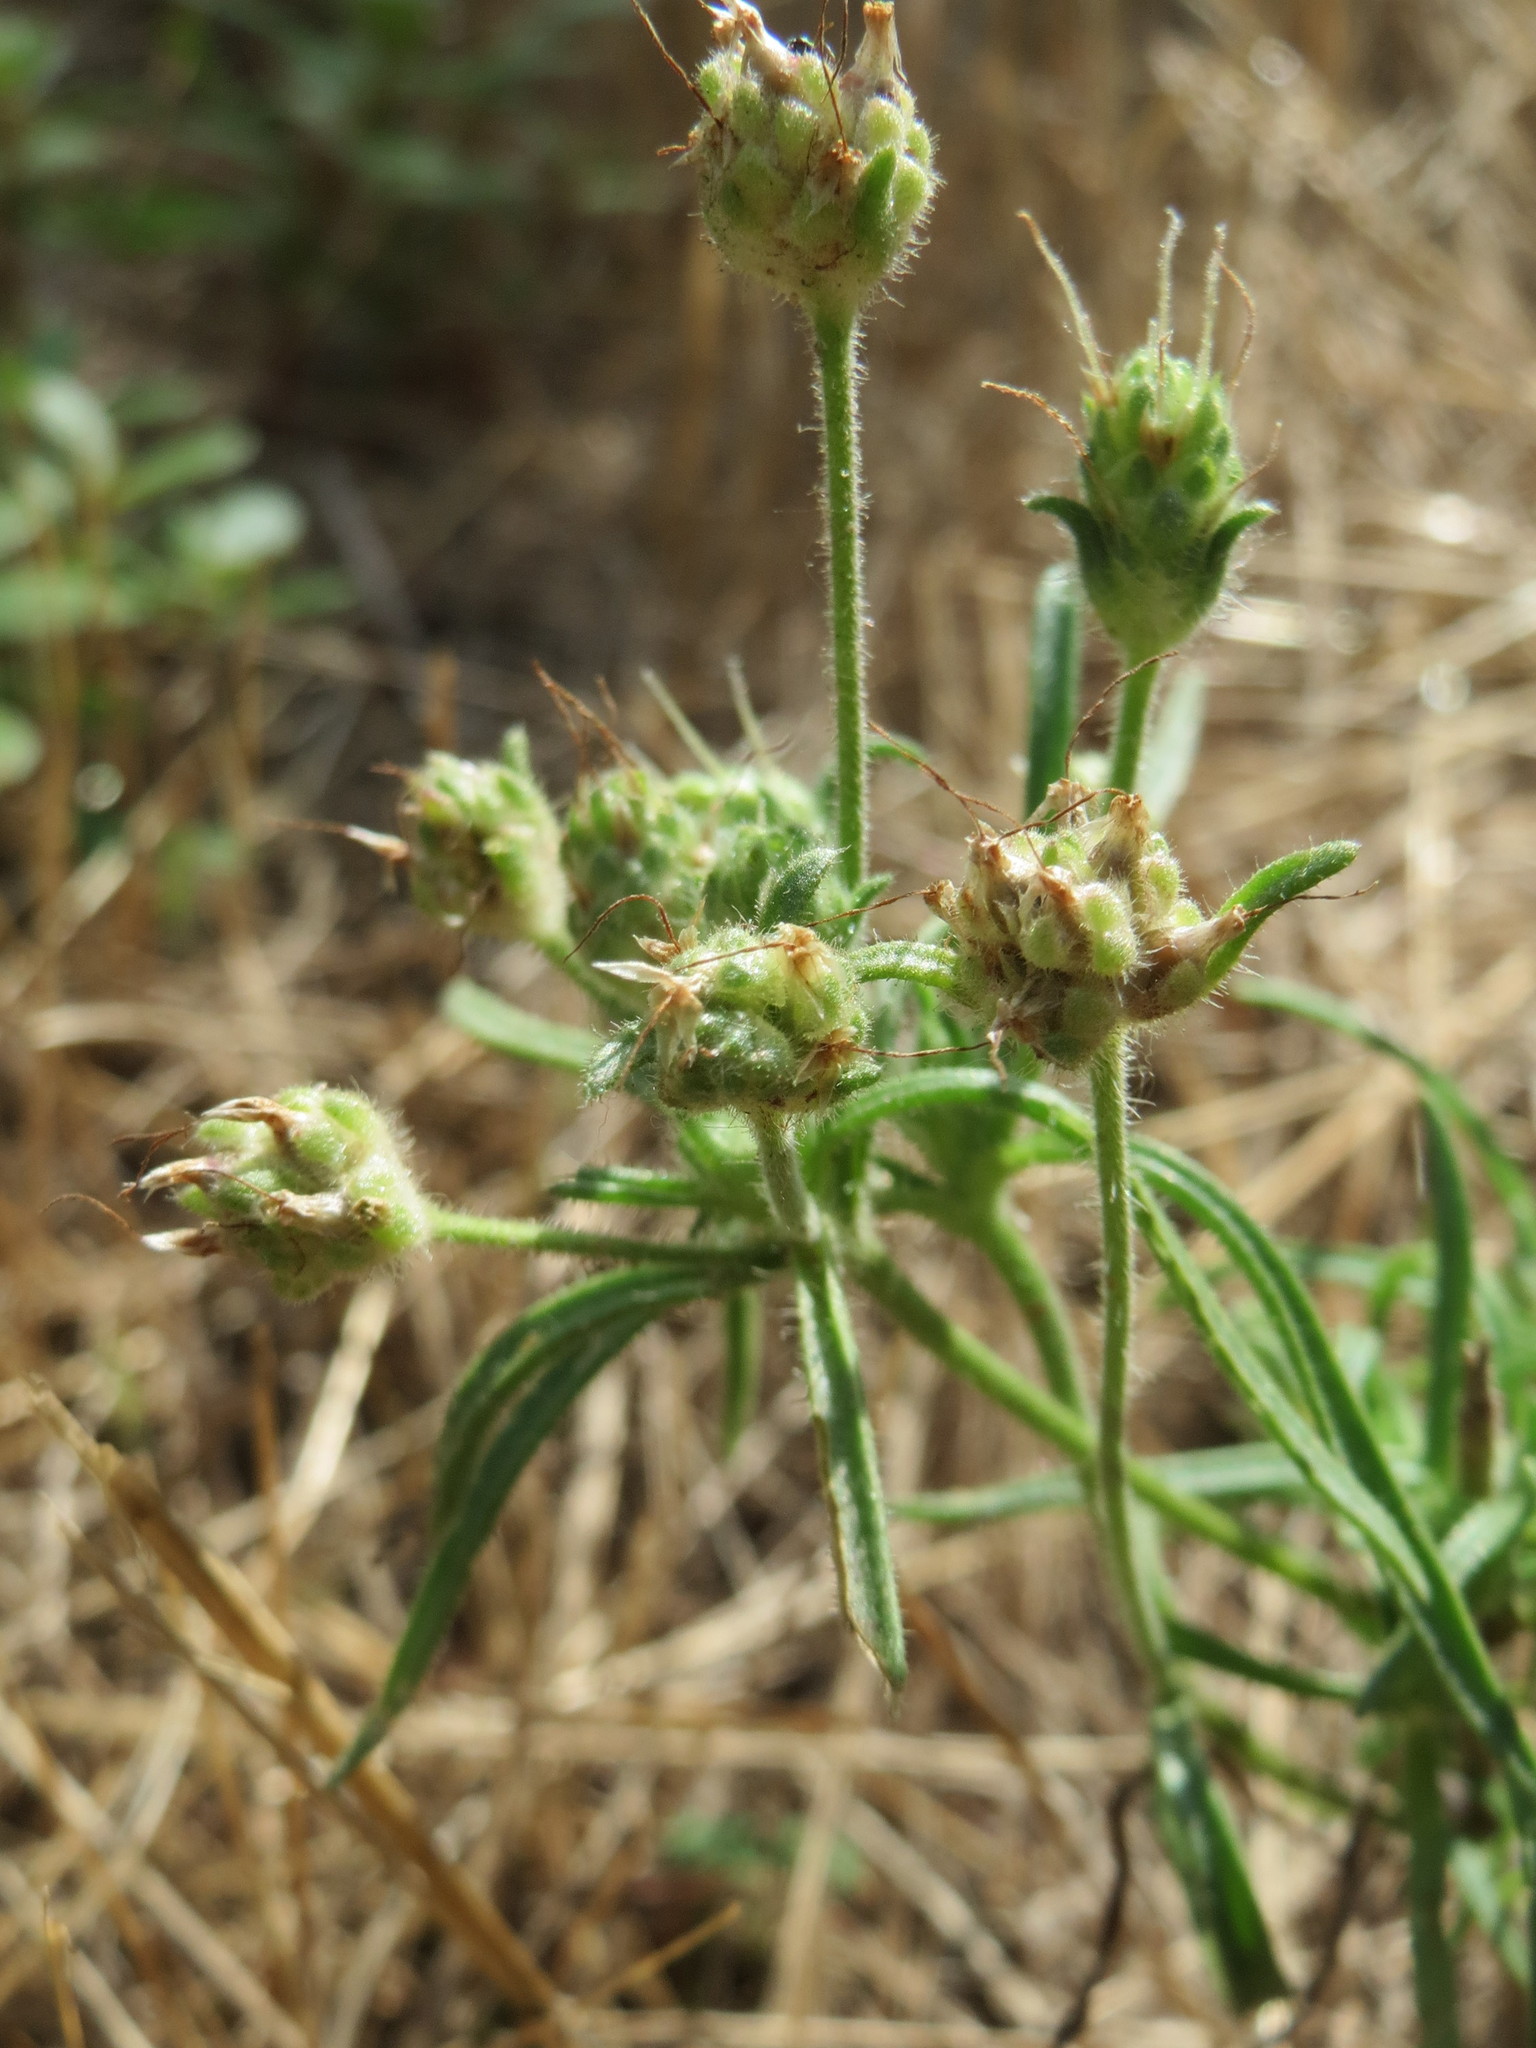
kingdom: Plantae
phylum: Tracheophyta
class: Magnoliopsida
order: Lamiales
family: Plantaginaceae
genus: Plantago
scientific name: Plantago arenaria
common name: Branched plantain
